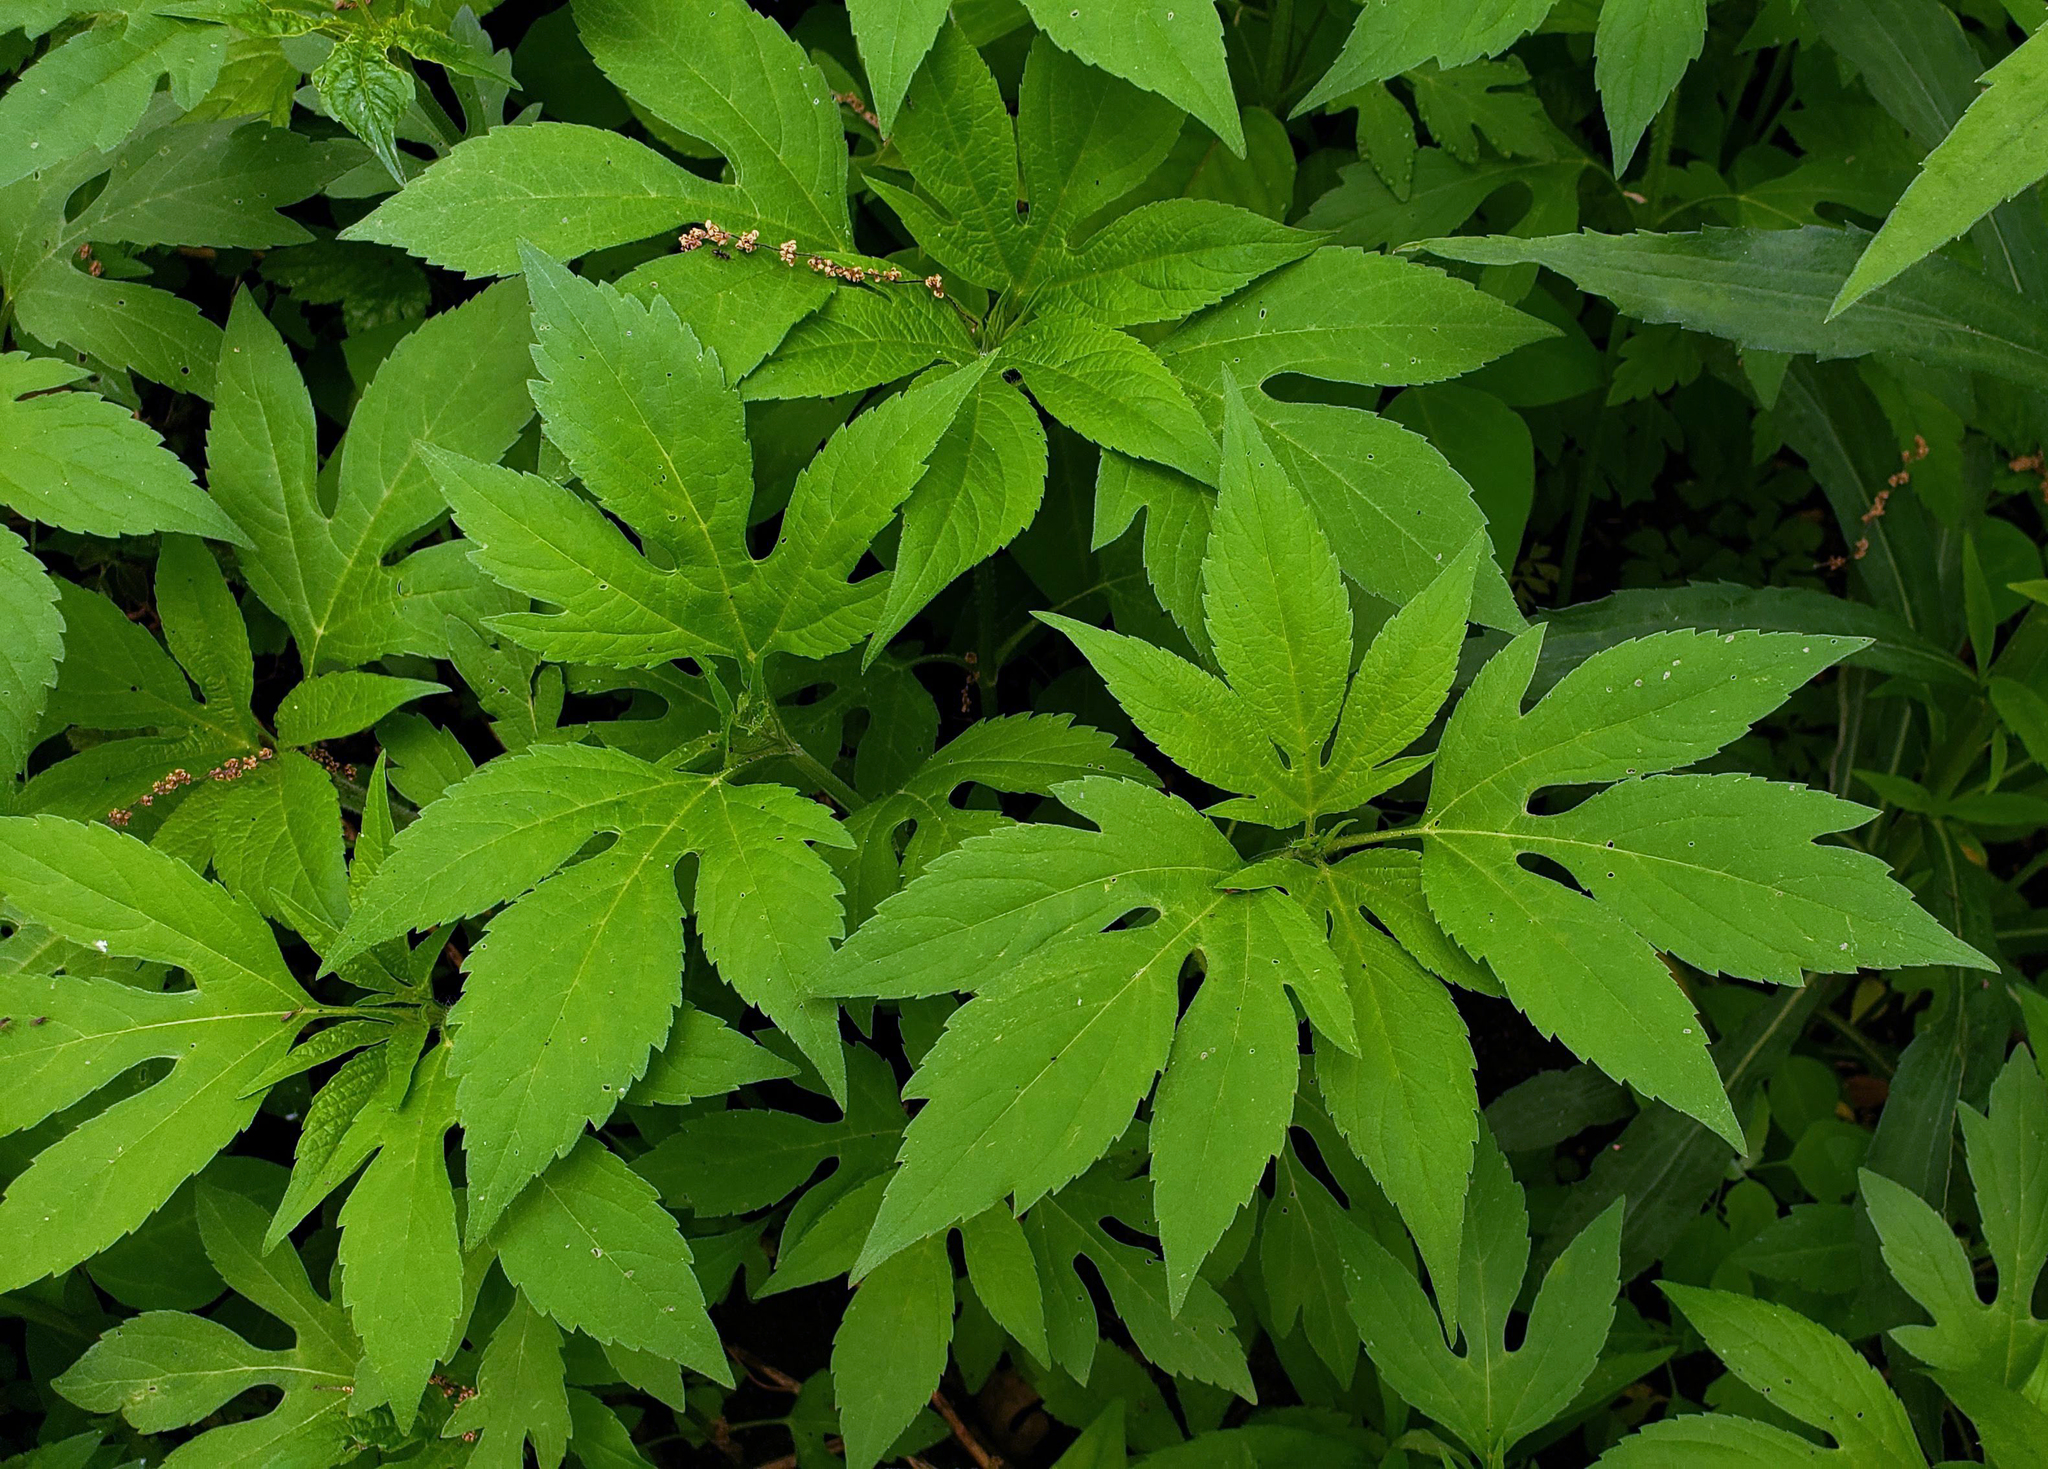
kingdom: Plantae
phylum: Tracheophyta
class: Magnoliopsida
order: Asterales
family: Asteraceae
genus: Ambrosia
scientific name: Ambrosia trifida
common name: Giant ragweed
